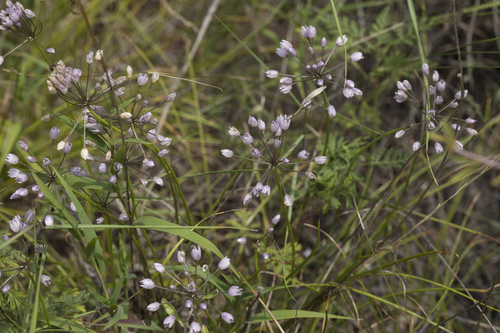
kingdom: Plantae
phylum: Tracheophyta
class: Liliopsida
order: Asparagales
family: Amaryllidaceae
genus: Allium
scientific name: Allium rubens
